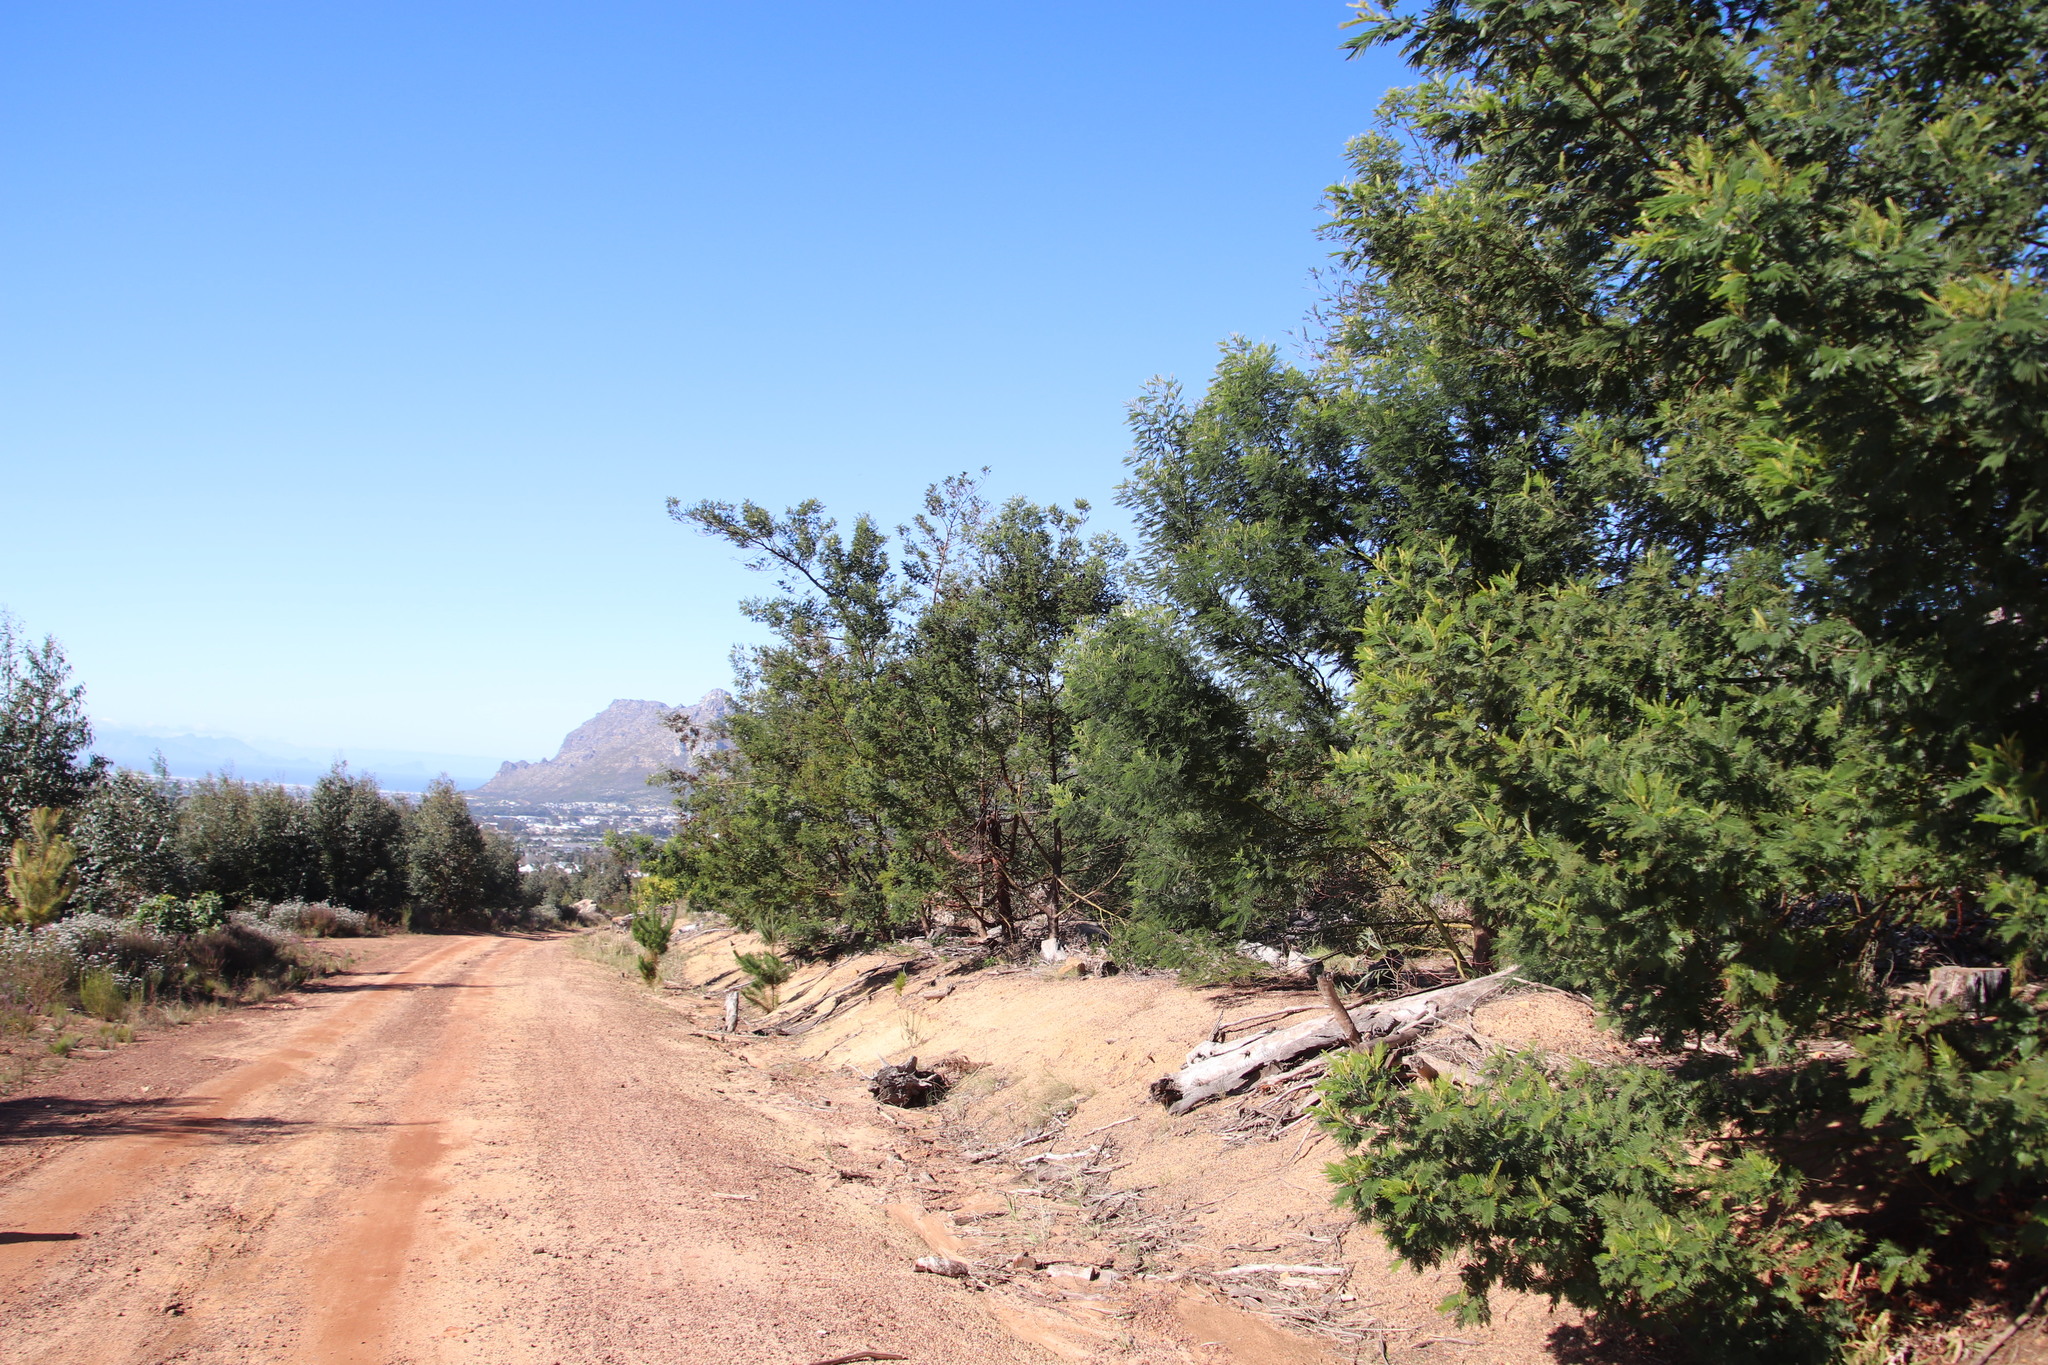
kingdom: Plantae
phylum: Tracheophyta
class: Magnoliopsida
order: Fabales
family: Fabaceae
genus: Acacia
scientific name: Acacia mearnsii
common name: Black wattle
